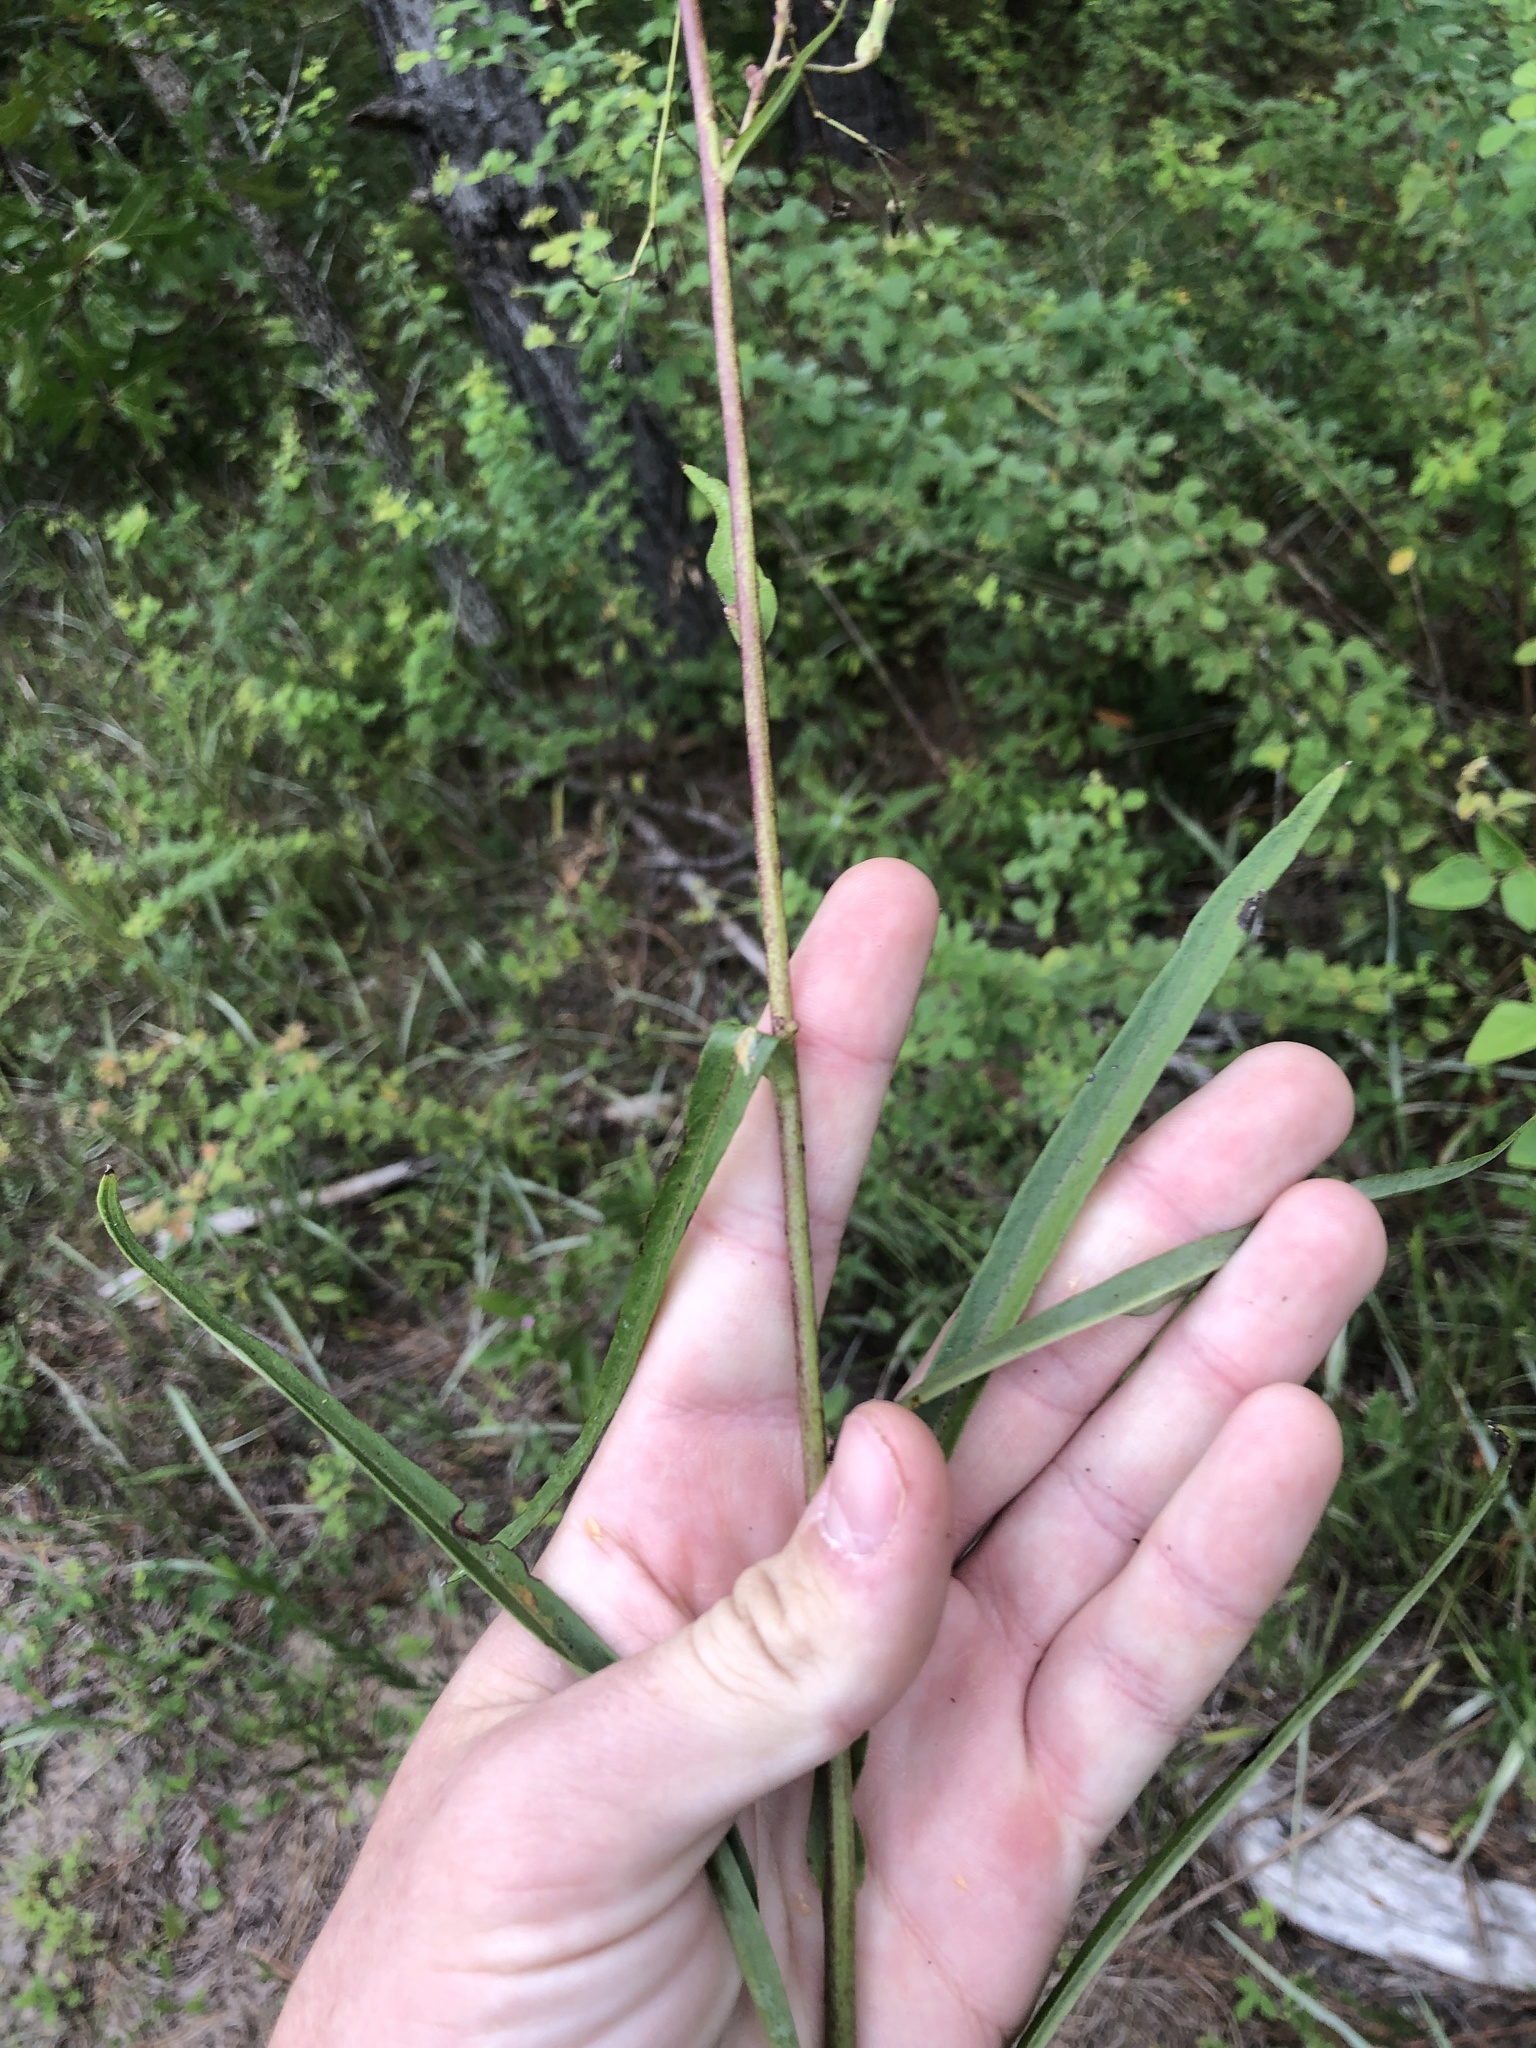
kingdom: Plantae
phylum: Tracheophyta
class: Magnoliopsida
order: Asterales
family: Asteraceae
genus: Lactuca
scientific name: Lactuca graminifolia
